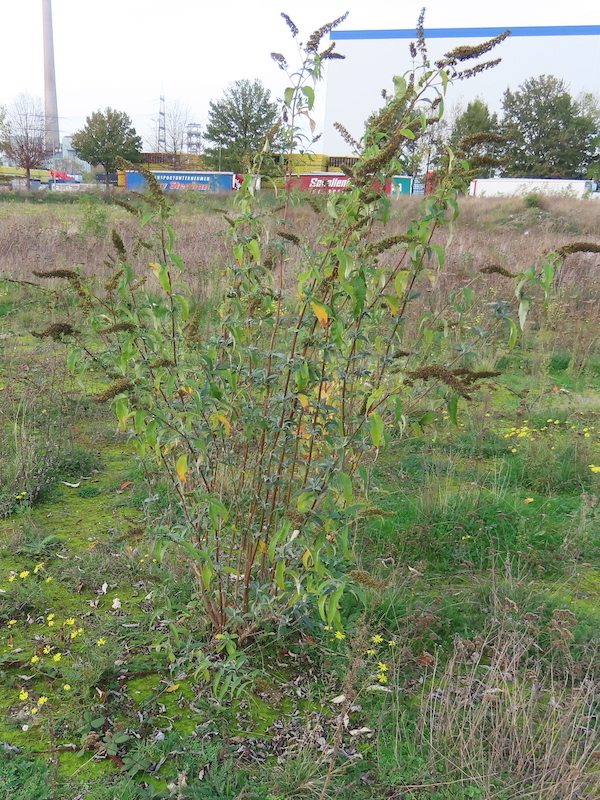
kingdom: Plantae
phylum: Tracheophyta
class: Magnoliopsida
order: Lamiales
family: Scrophulariaceae
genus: Buddleja
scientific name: Buddleja davidii
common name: Butterfly-bush
